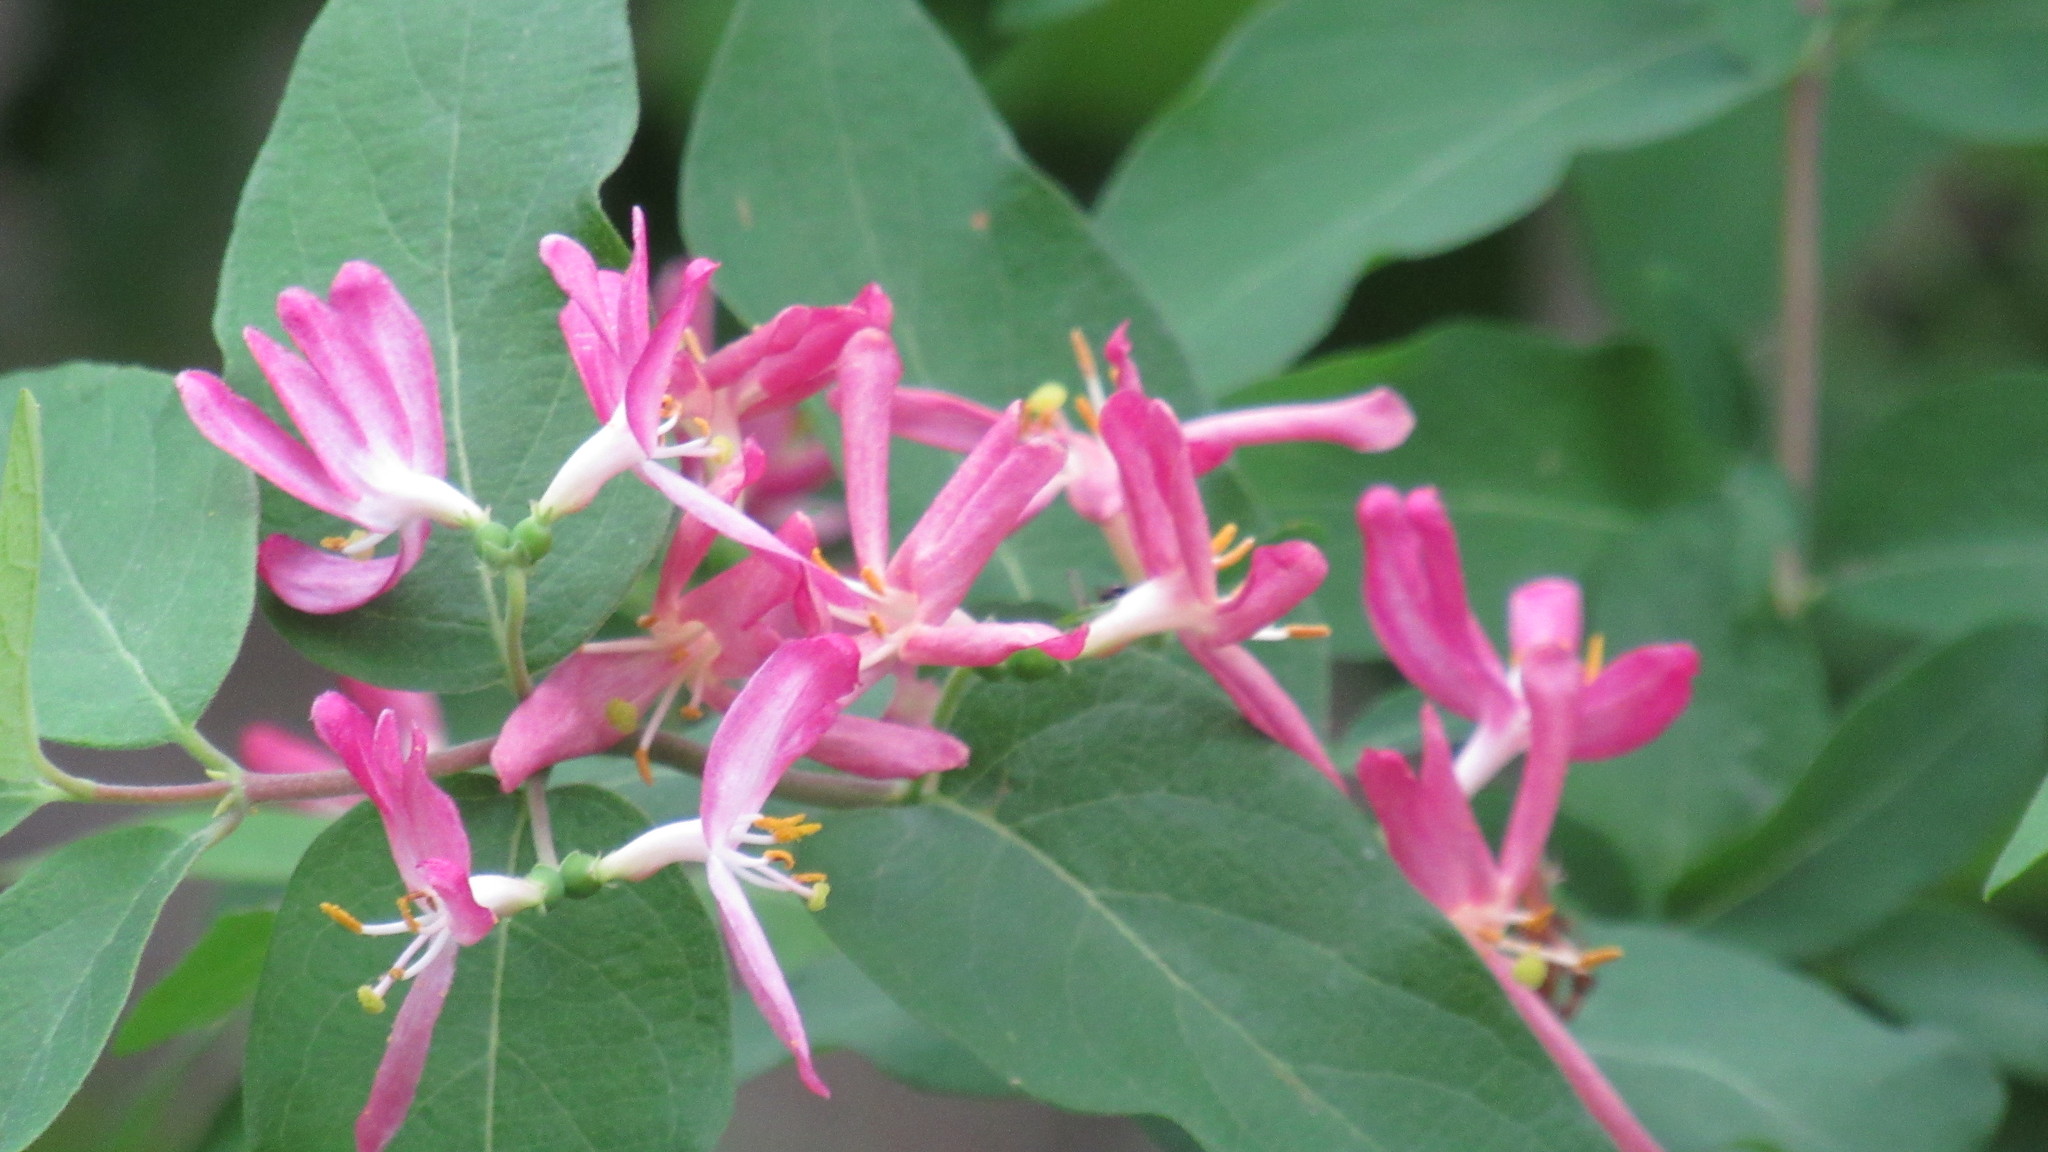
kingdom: Plantae
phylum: Tracheophyta
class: Magnoliopsida
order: Dipsacales
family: Caprifoliaceae
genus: Lonicera
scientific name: Lonicera tatarica
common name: Tatarian honeysuckle
